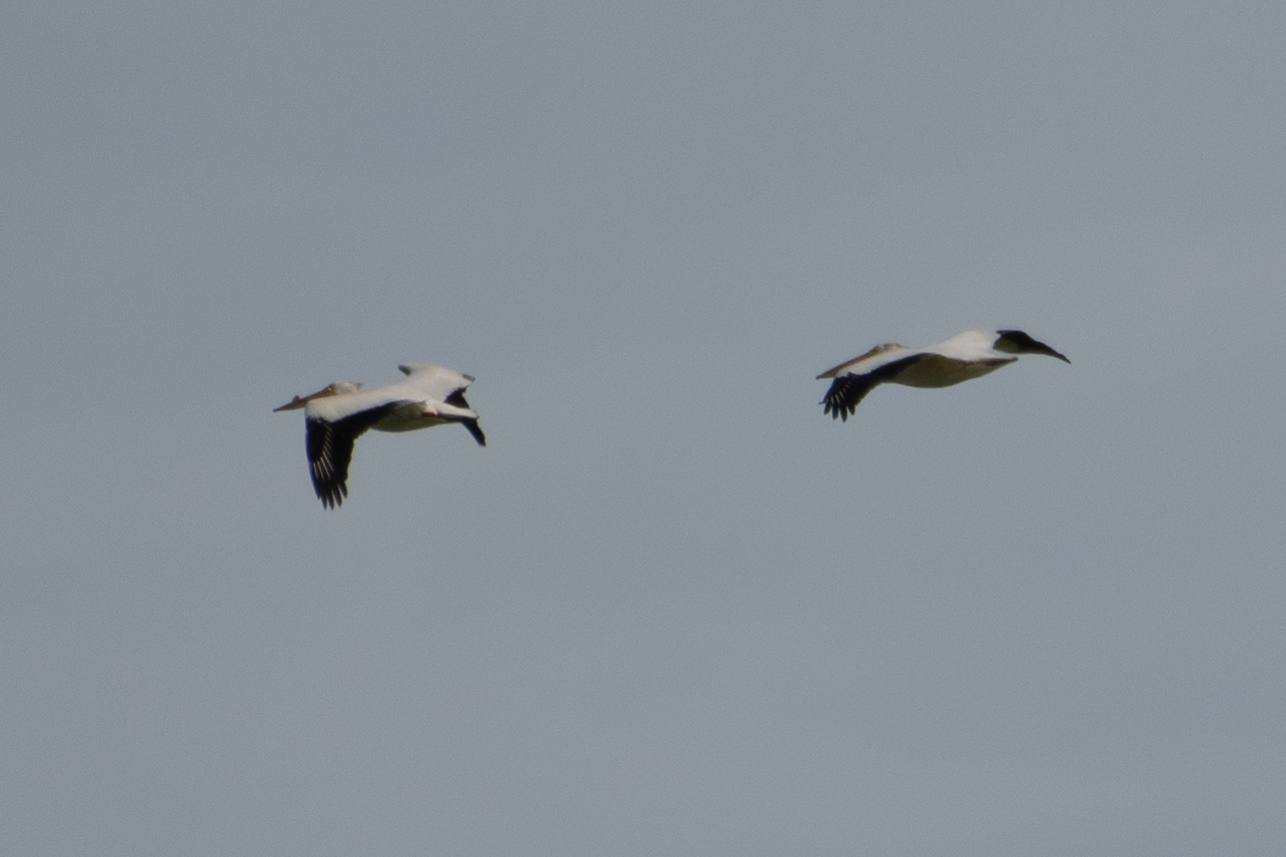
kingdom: Animalia
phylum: Chordata
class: Aves
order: Pelecaniformes
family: Pelecanidae
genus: Pelecanus
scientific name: Pelecanus erythrorhynchos
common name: American white pelican
